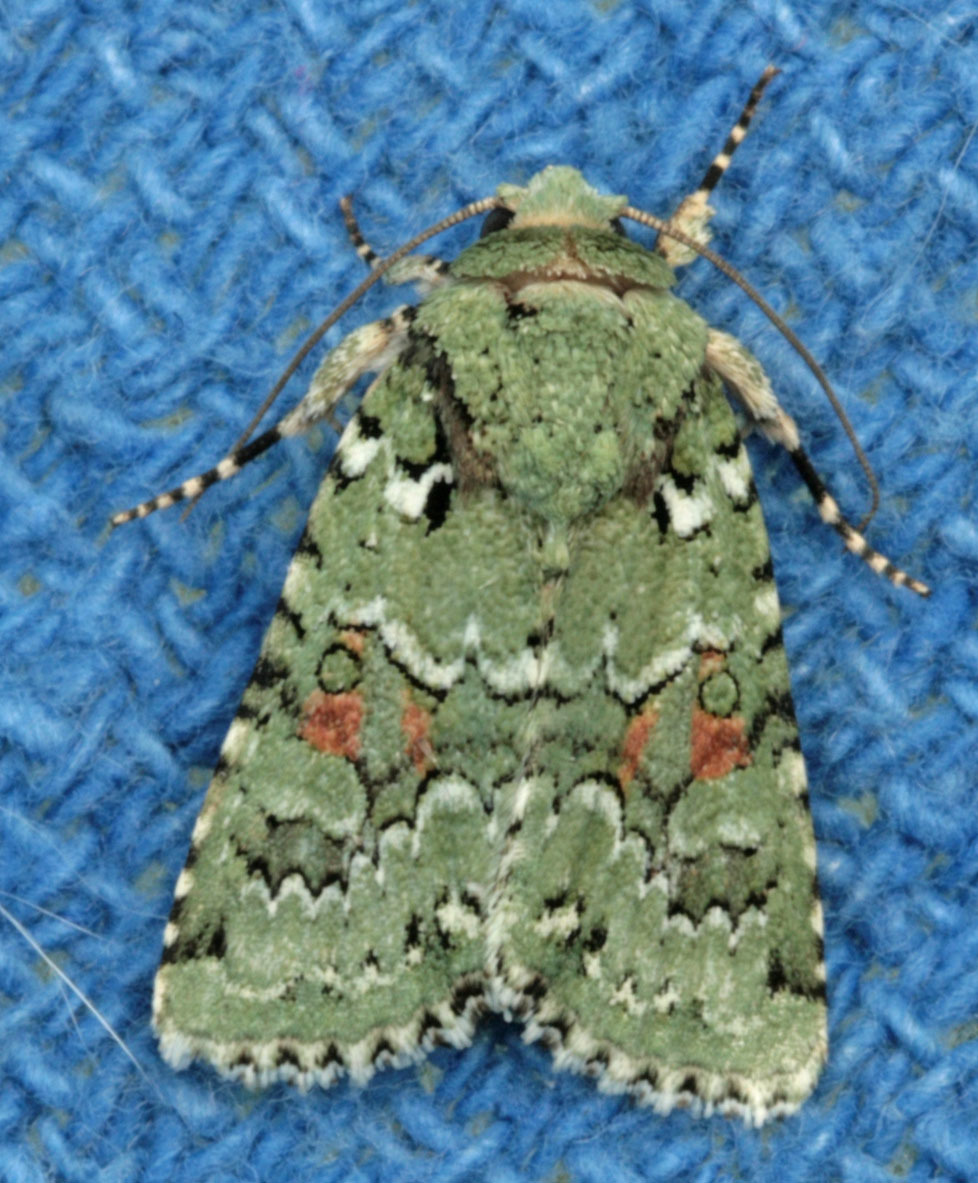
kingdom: Animalia
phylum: Arthropoda
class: Insecta
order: Lepidoptera
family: Noctuidae
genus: Lacinipolia
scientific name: Lacinipolia laudabilis
